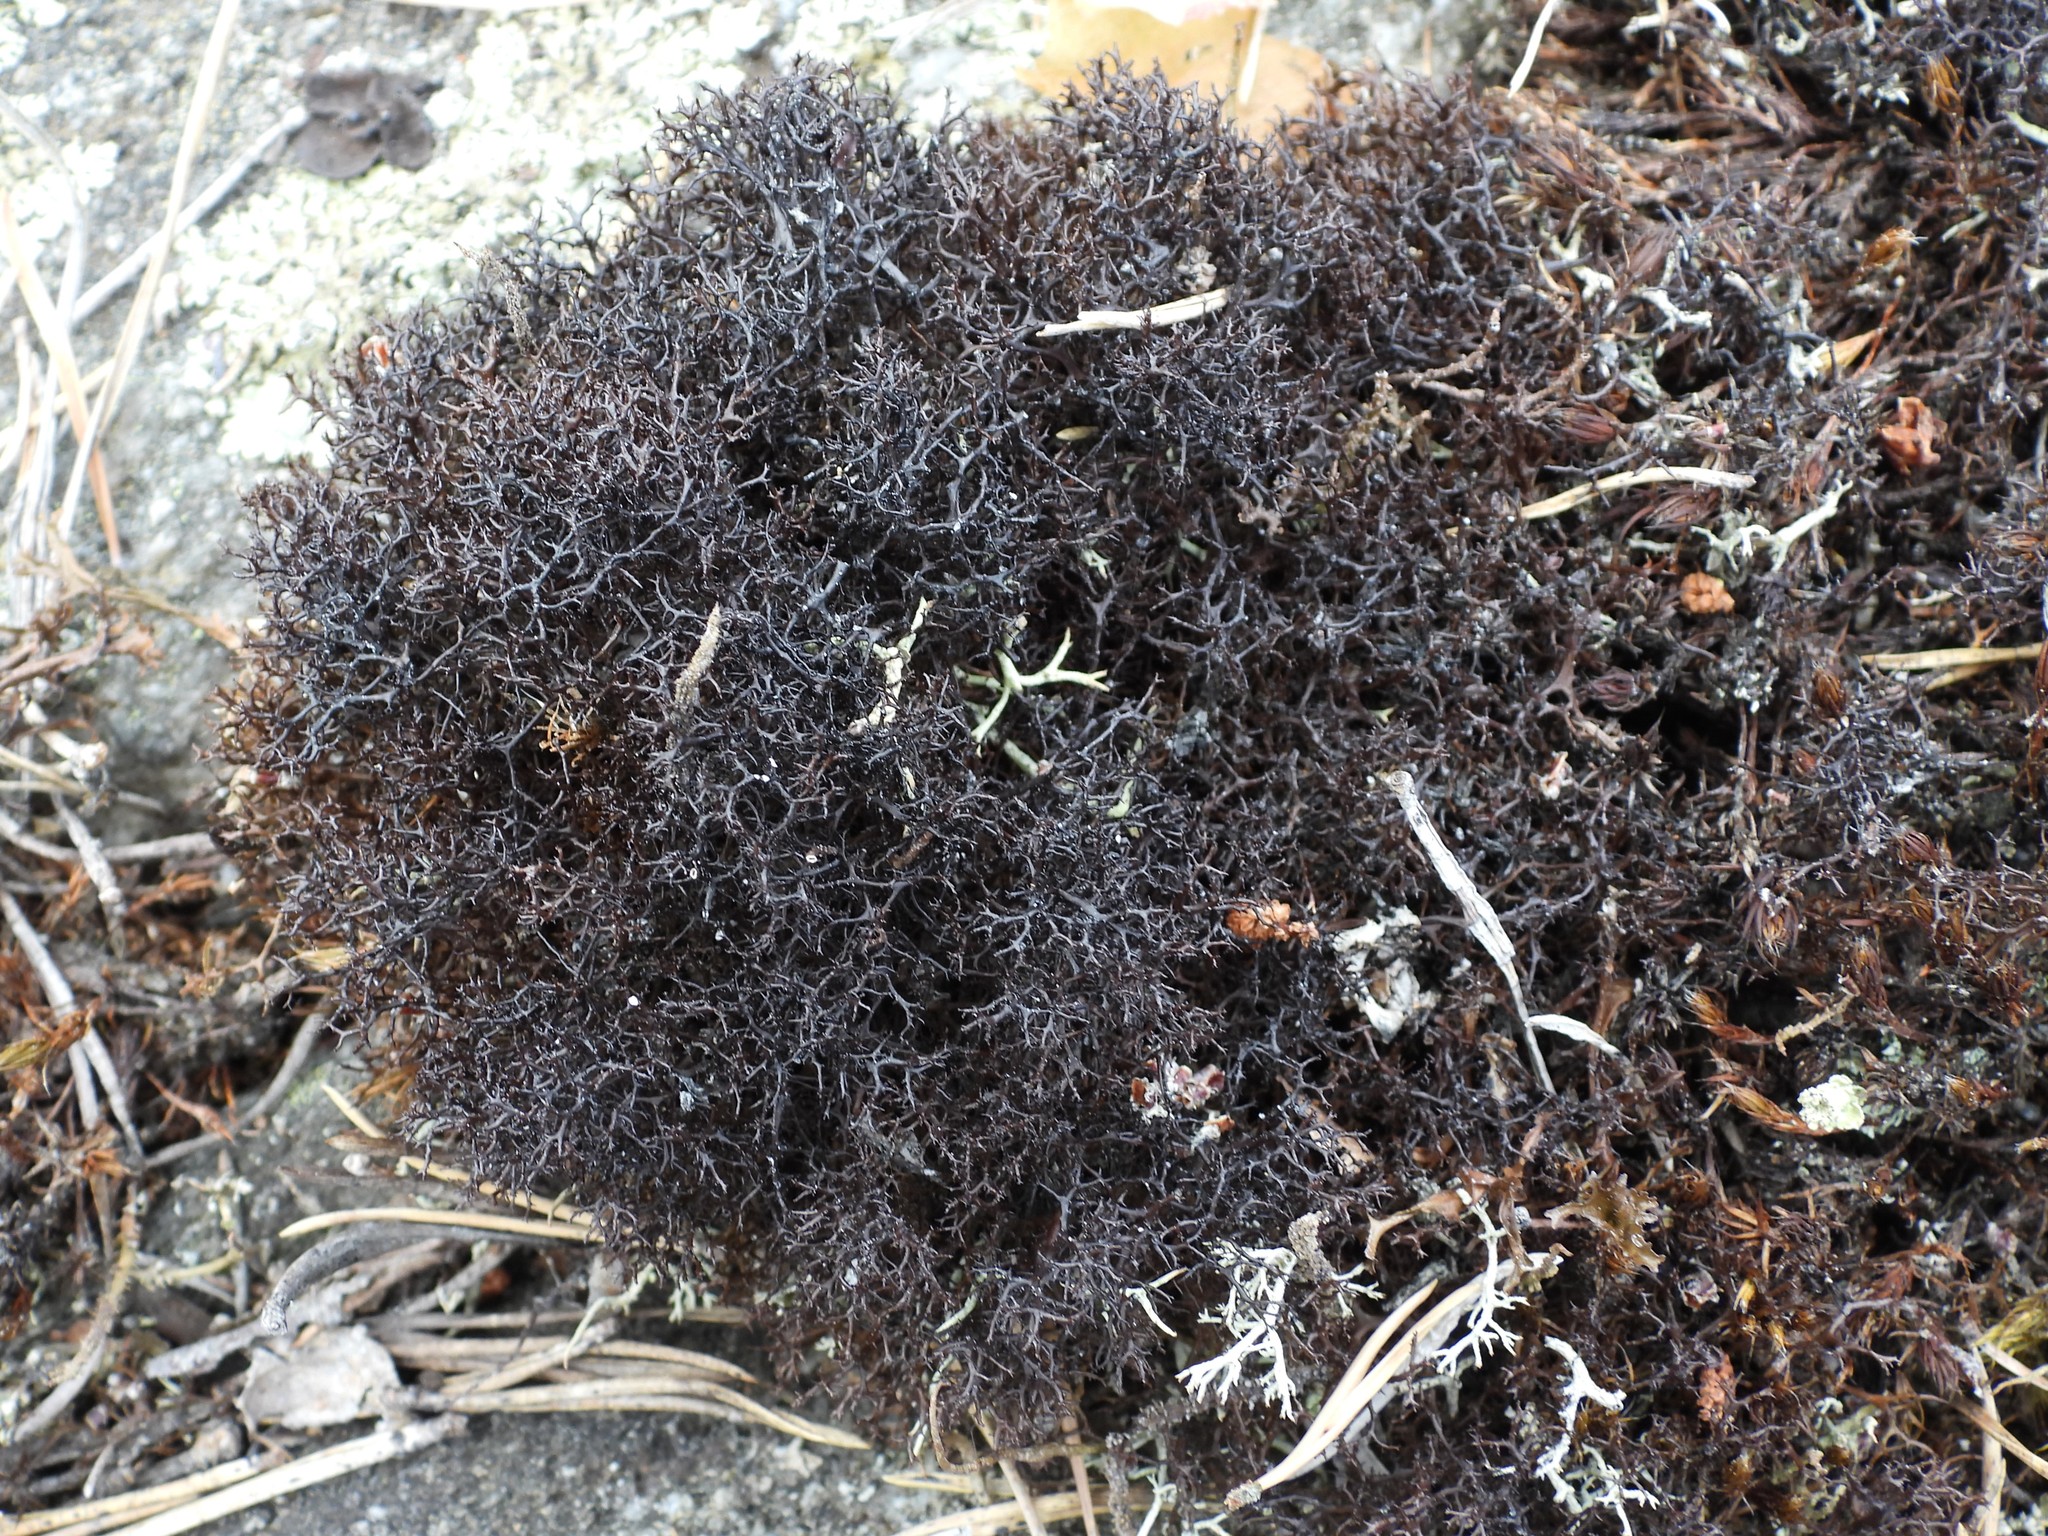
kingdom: Fungi
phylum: Ascomycota
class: Lecanoromycetes
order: Lecanorales
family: Parmeliaceae
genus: Cetraria
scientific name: Cetraria muricata
